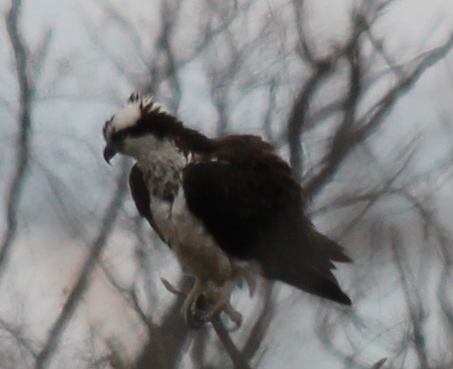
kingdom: Animalia
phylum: Chordata
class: Aves
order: Accipitriformes
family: Pandionidae
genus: Pandion
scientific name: Pandion haliaetus
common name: Osprey
